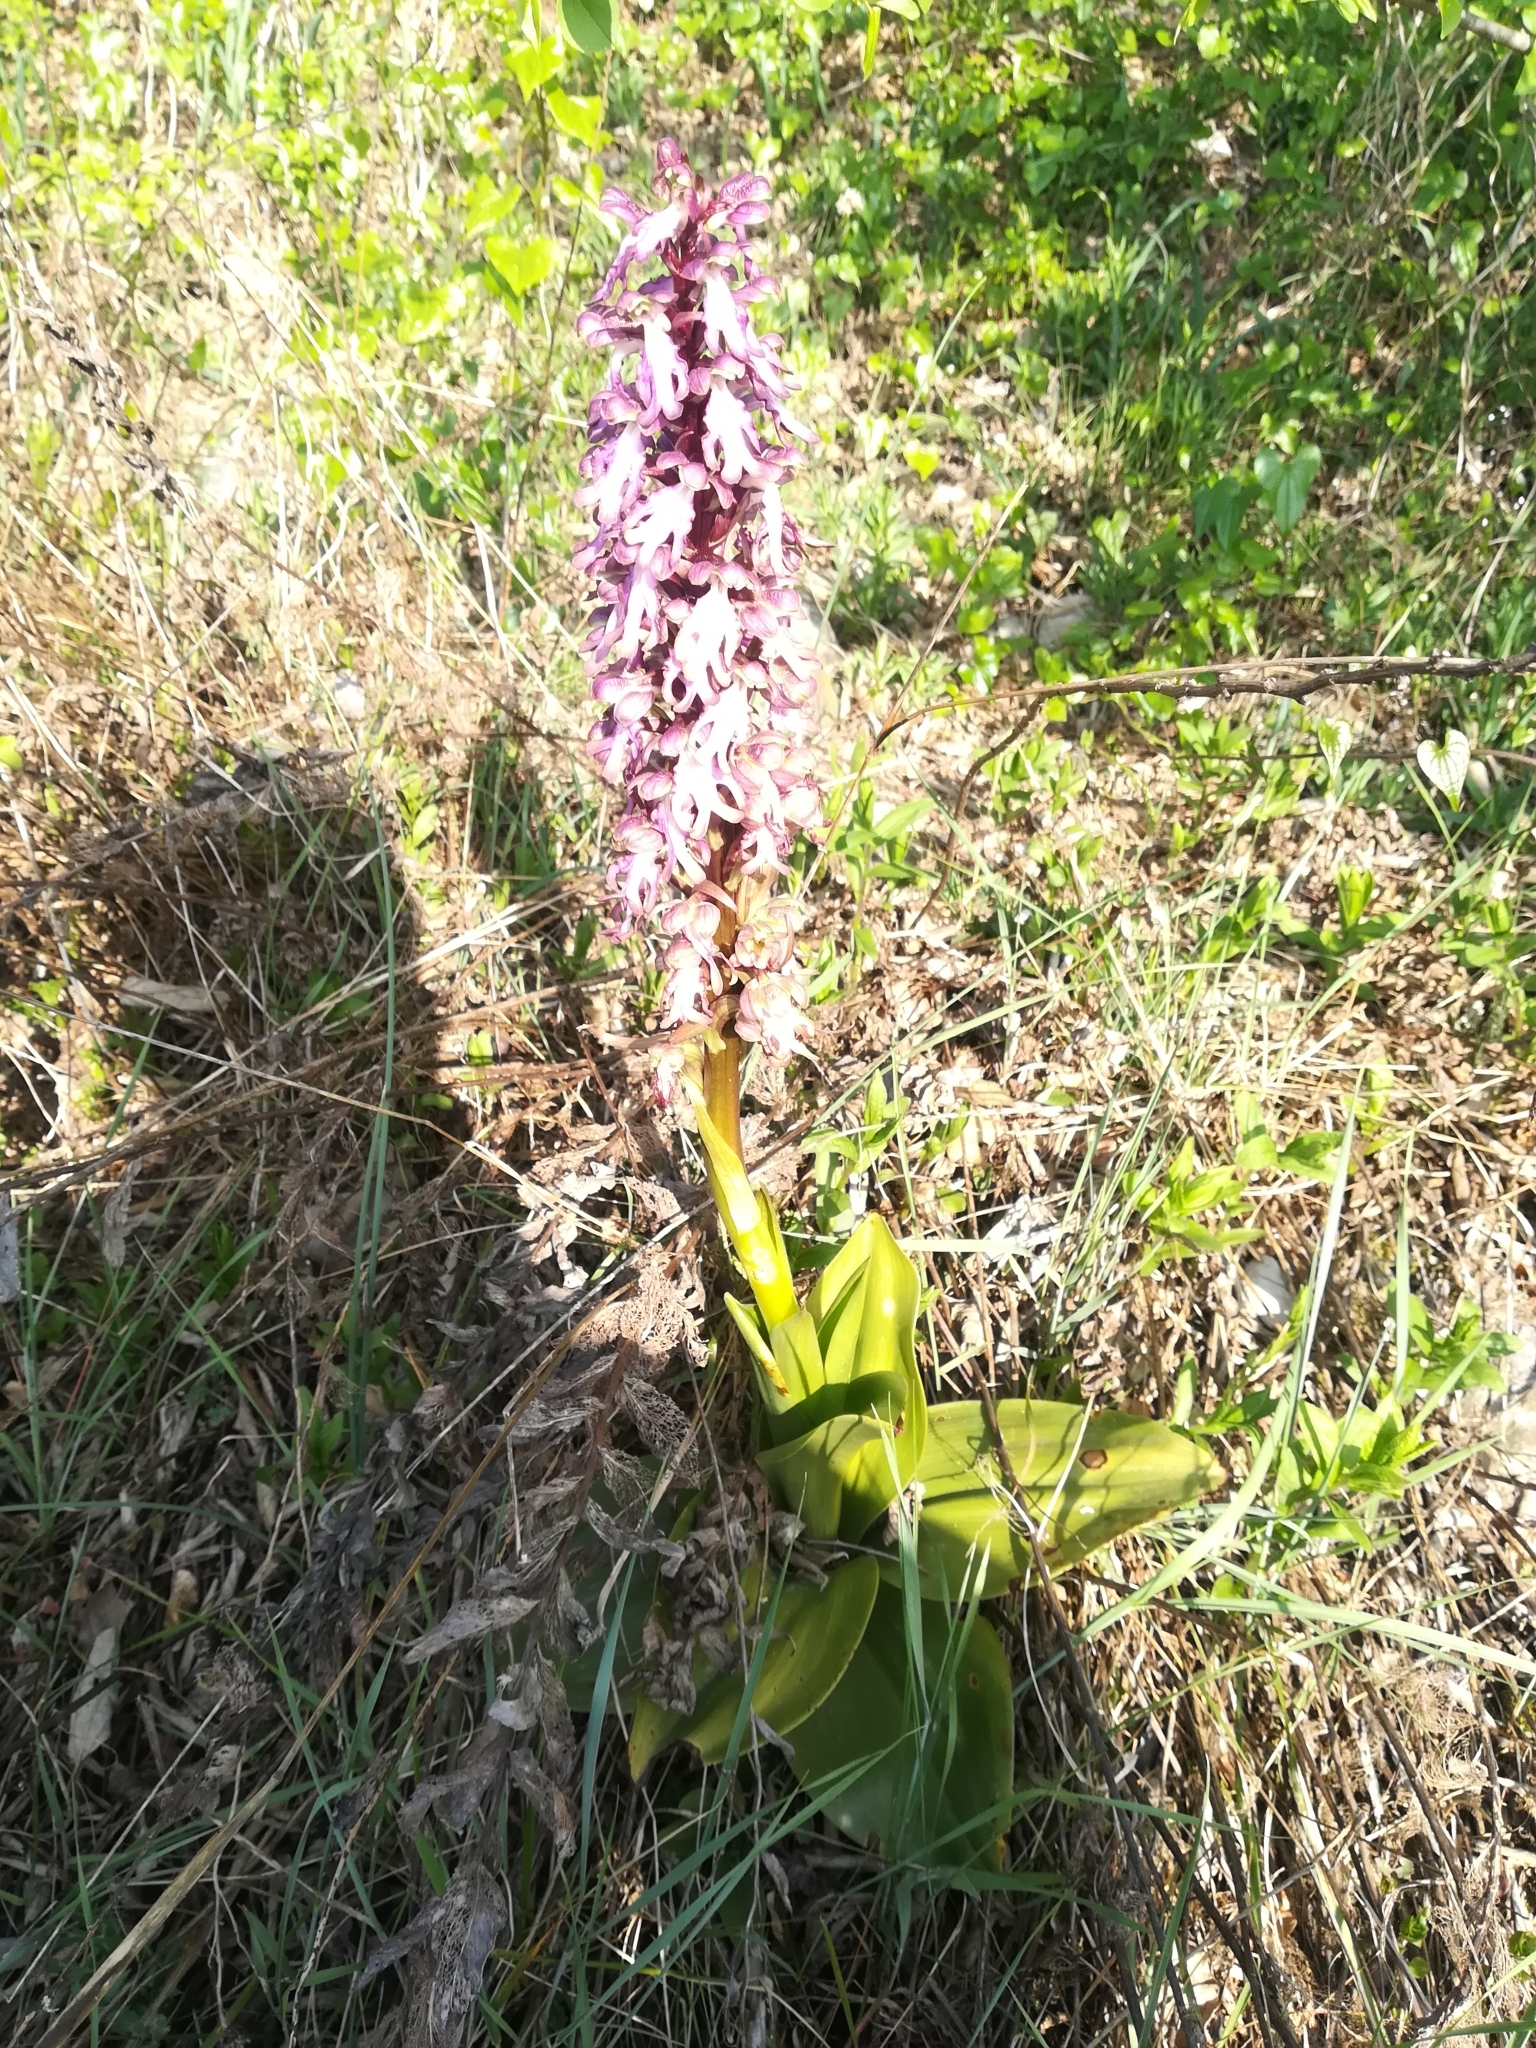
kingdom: Plantae
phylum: Tracheophyta
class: Liliopsida
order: Asparagales
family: Orchidaceae
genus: Himantoglossum
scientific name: Himantoglossum robertianum
